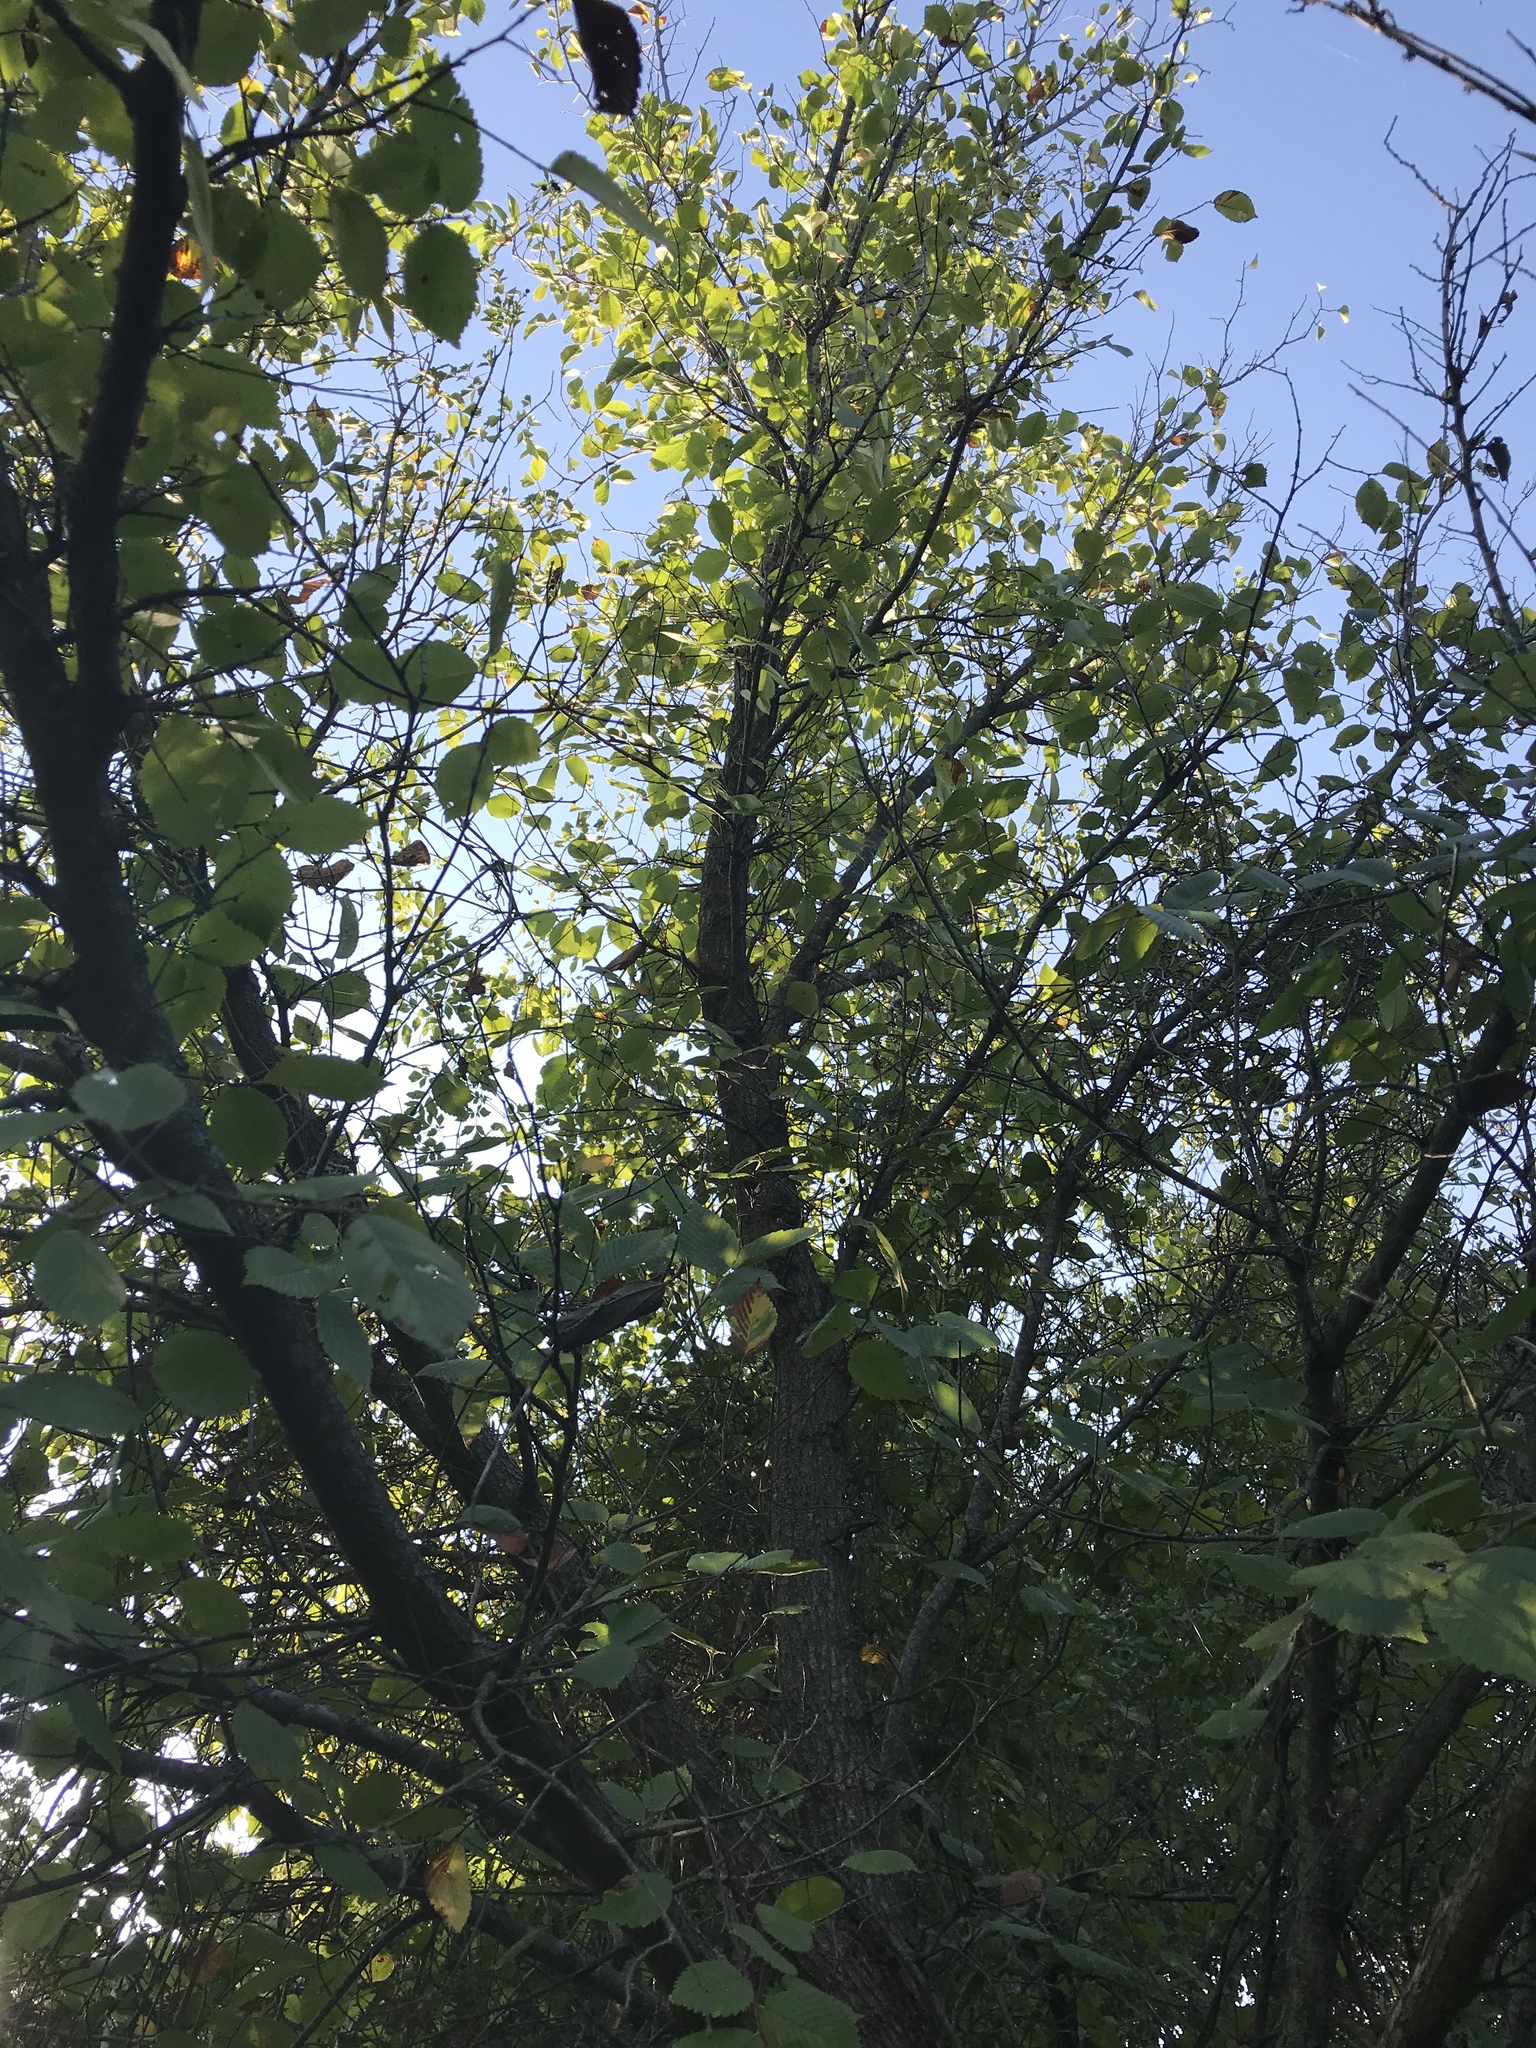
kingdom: Plantae
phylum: Tracheophyta
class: Magnoliopsida
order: Rosales
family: Ulmaceae
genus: Ulmus
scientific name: Ulmus americana
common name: American elm
